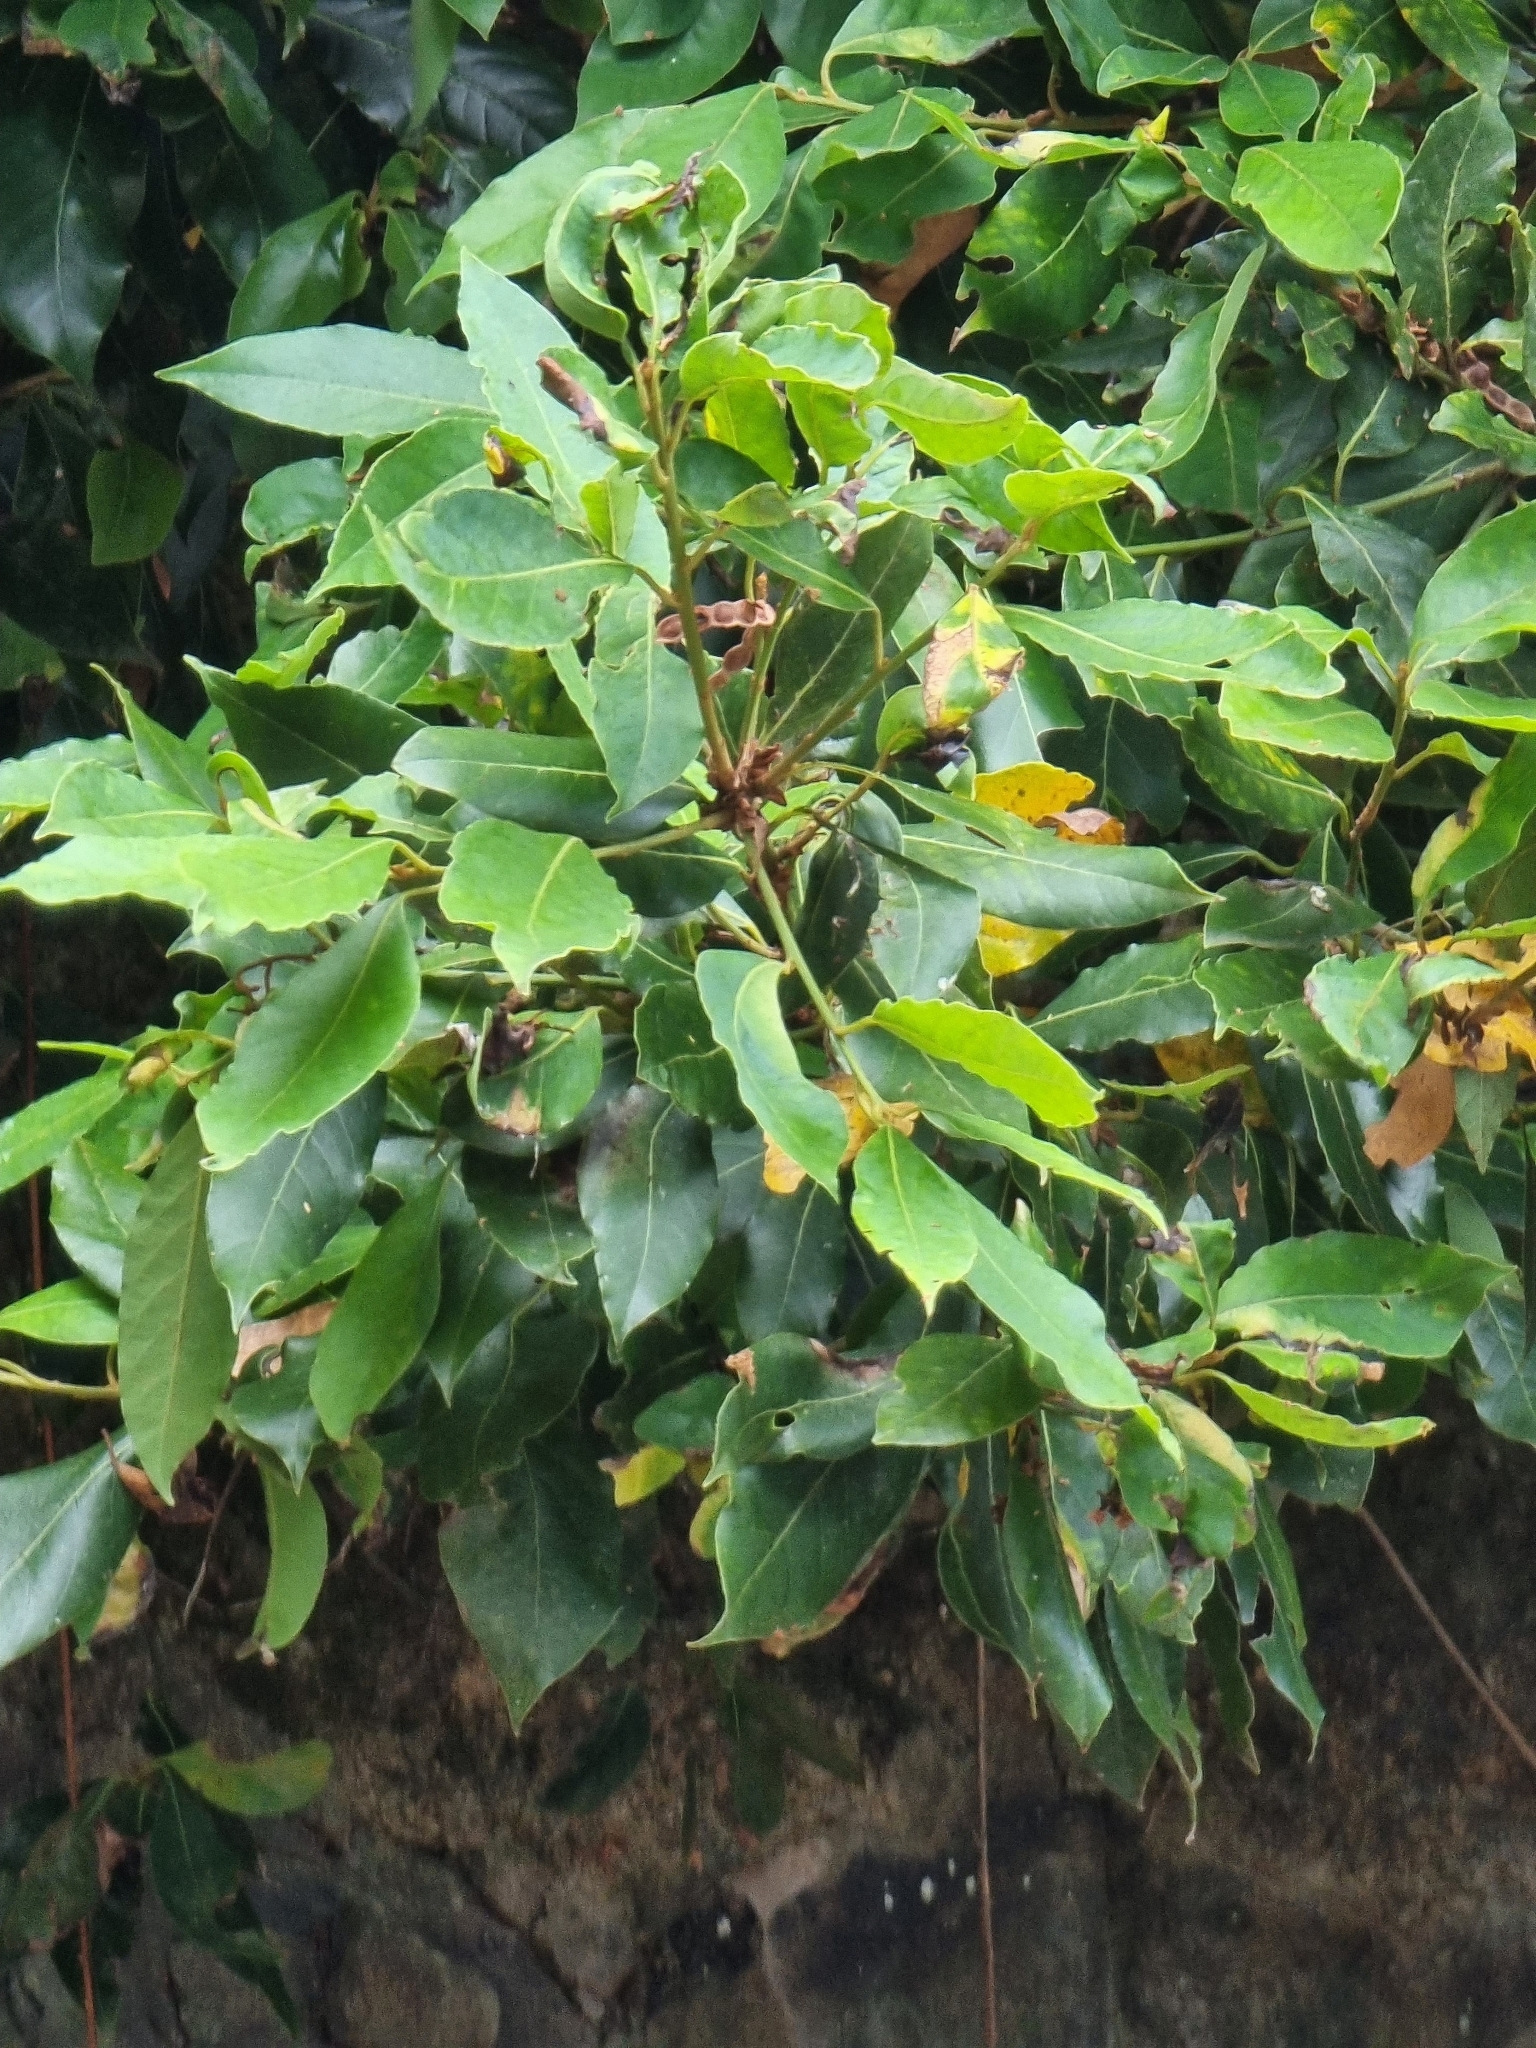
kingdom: Plantae
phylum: Tracheophyta
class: Magnoliopsida
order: Laurales
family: Lauraceae
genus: Laurus
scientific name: Laurus novocanariensis
